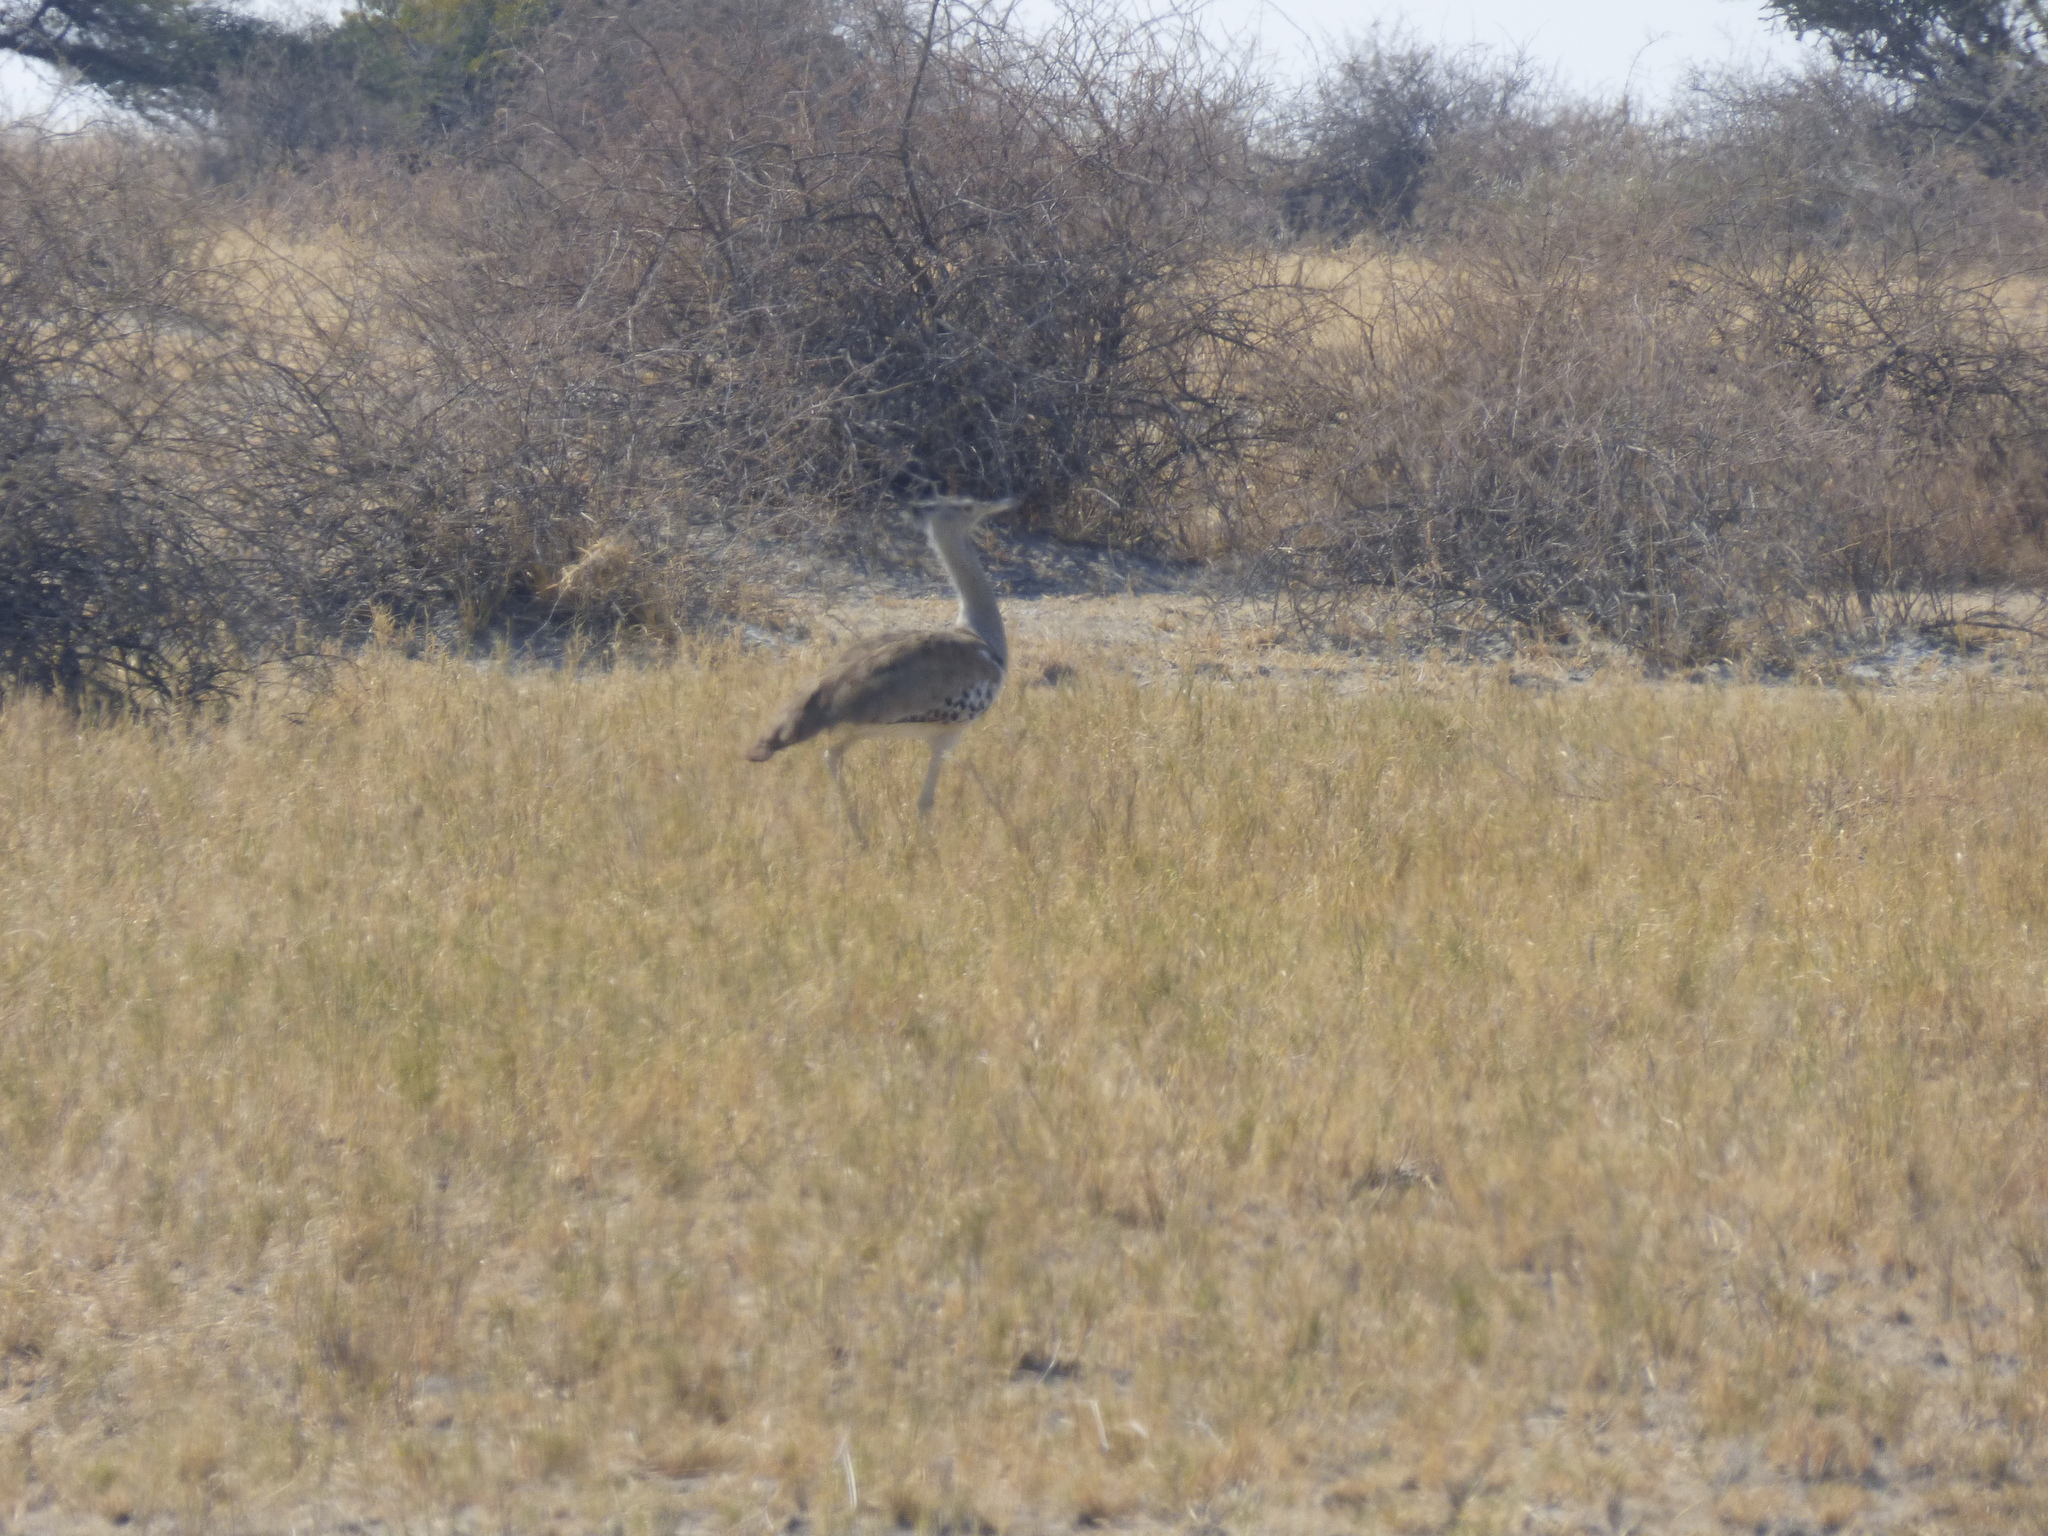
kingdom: Animalia
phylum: Chordata
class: Aves
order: Otidiformes
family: Otididae
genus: Ardeotis
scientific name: Ardeotis kori
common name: Kori bustard
